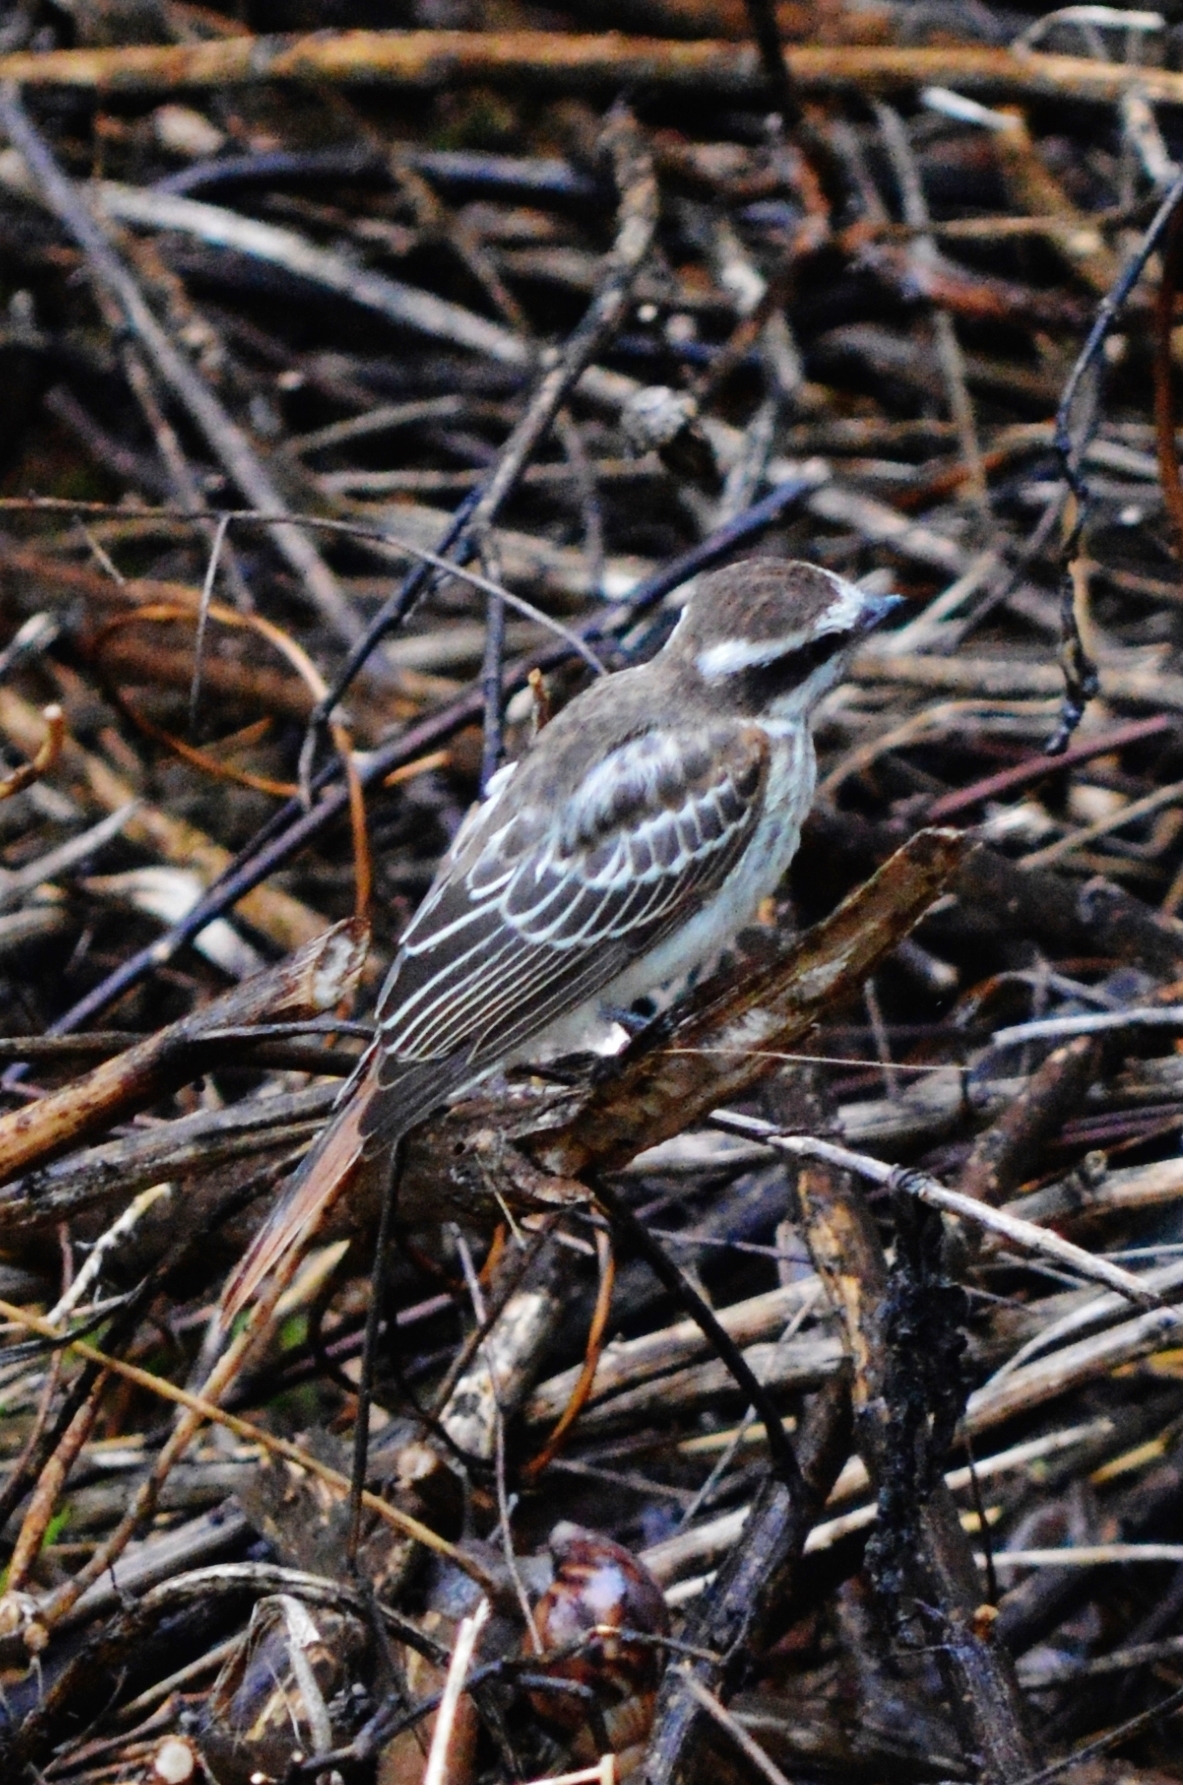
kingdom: Animalia
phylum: Chordata
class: Aves
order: Passeriformes
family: Tyrannidae
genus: Empidonomus
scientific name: Empidonomus varius
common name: Variegated flycatcher
